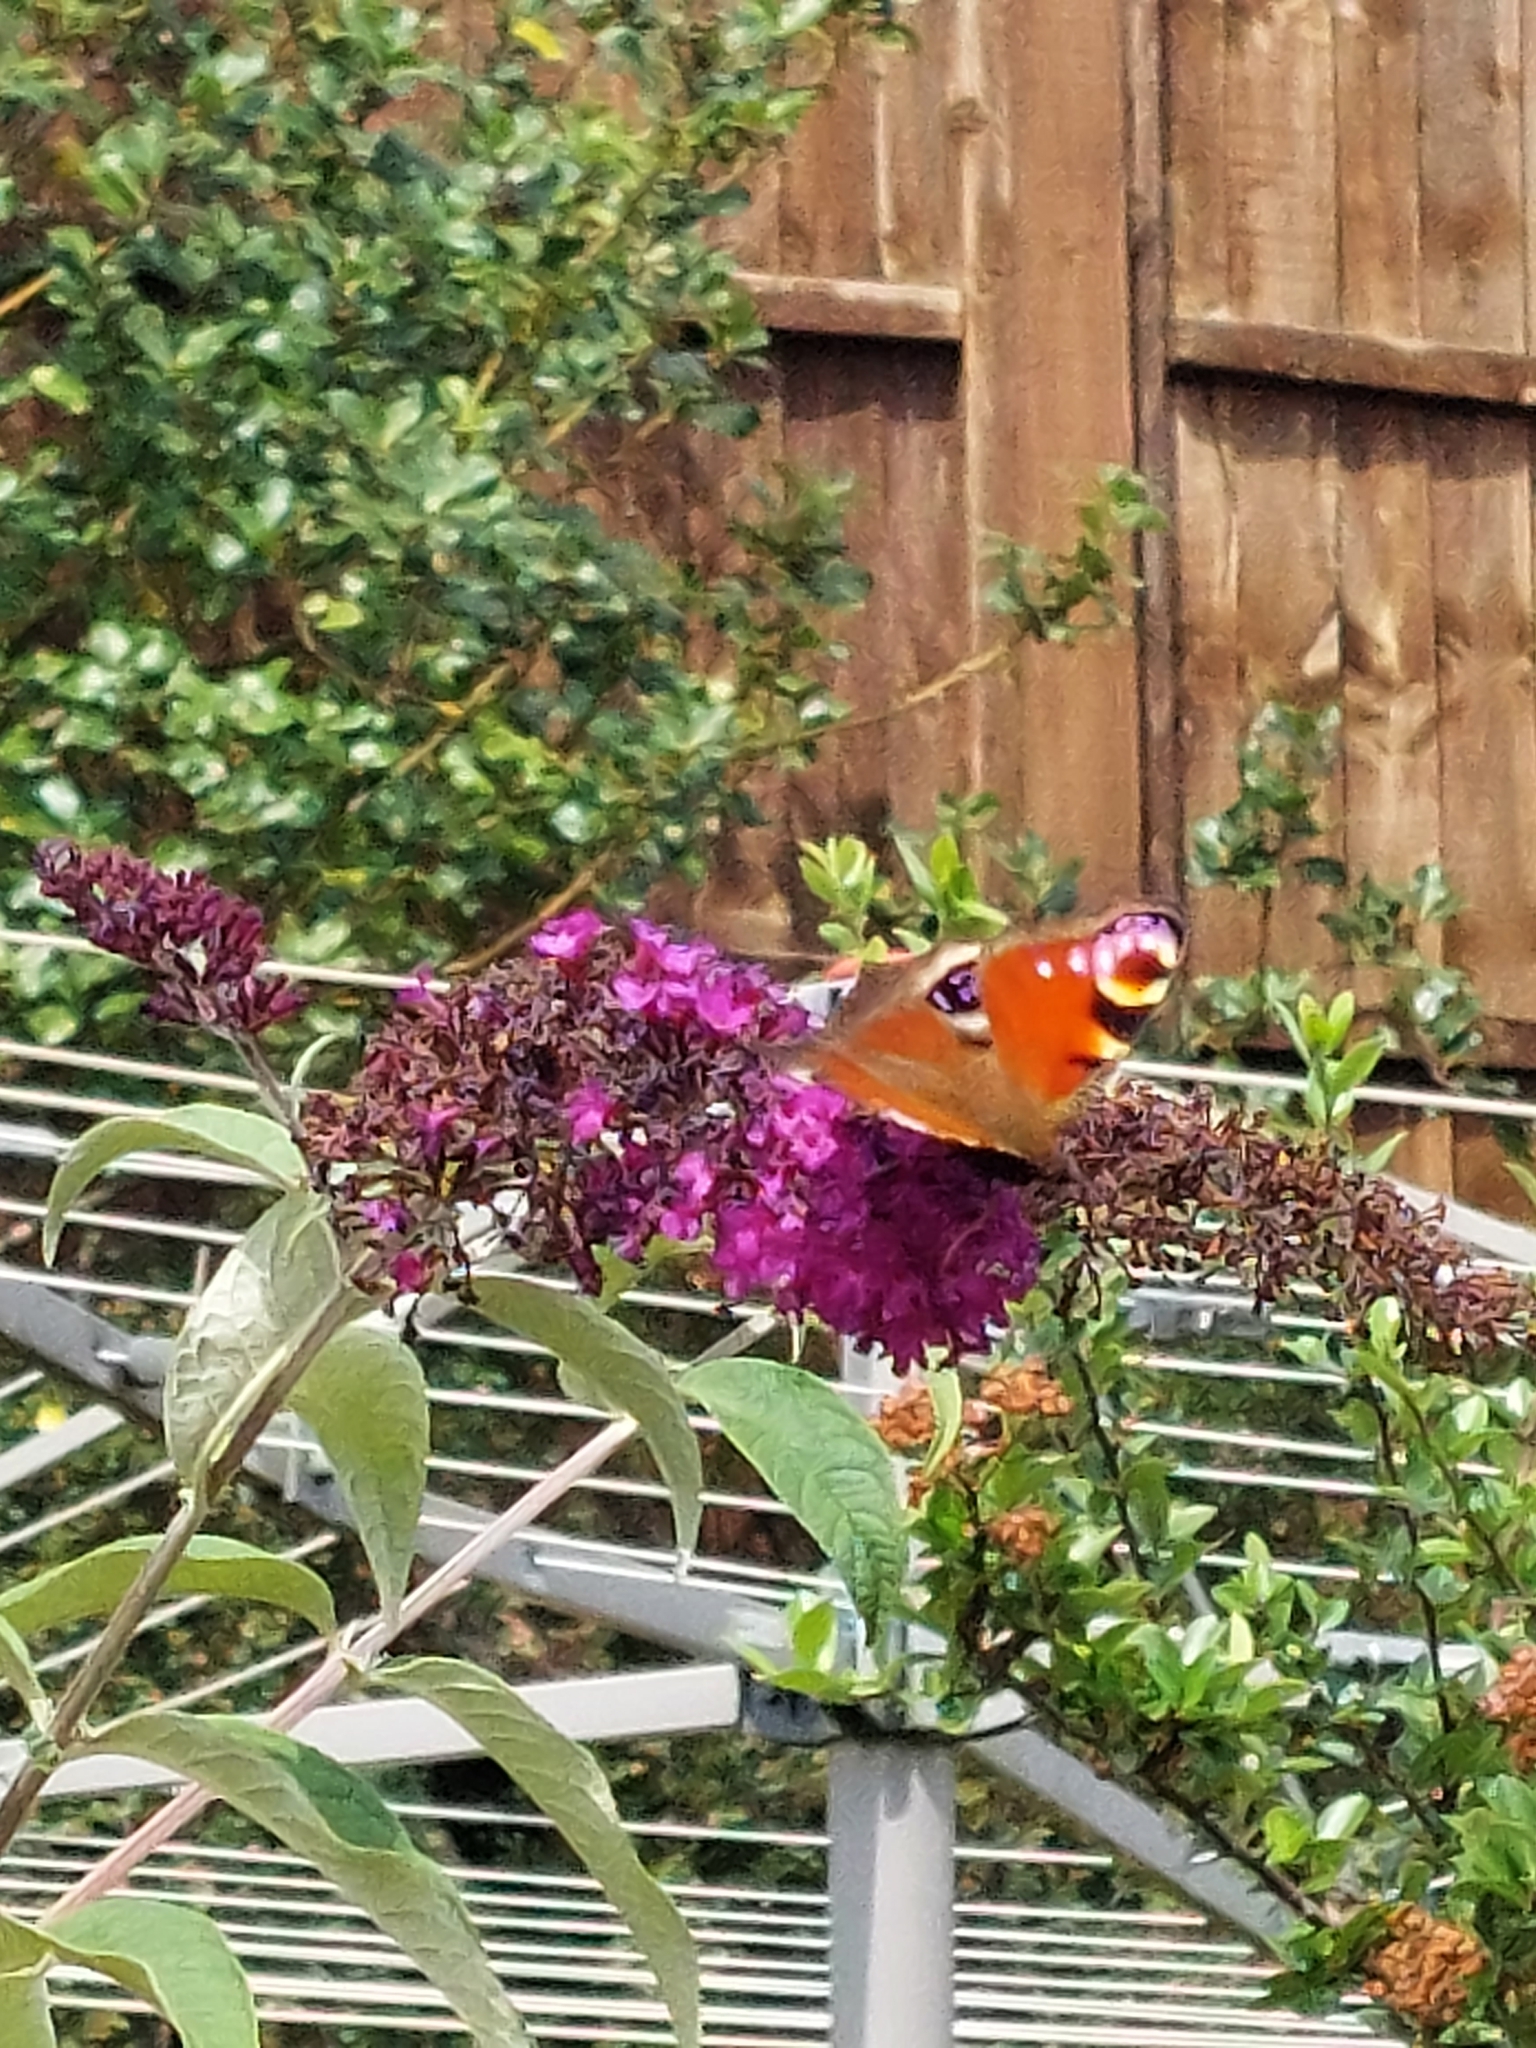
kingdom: Animalia
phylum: Arthropoda
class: Insecta
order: Lepidoptera
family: Nymphalidae
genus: Aglais
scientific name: Aglais io
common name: Peacock
